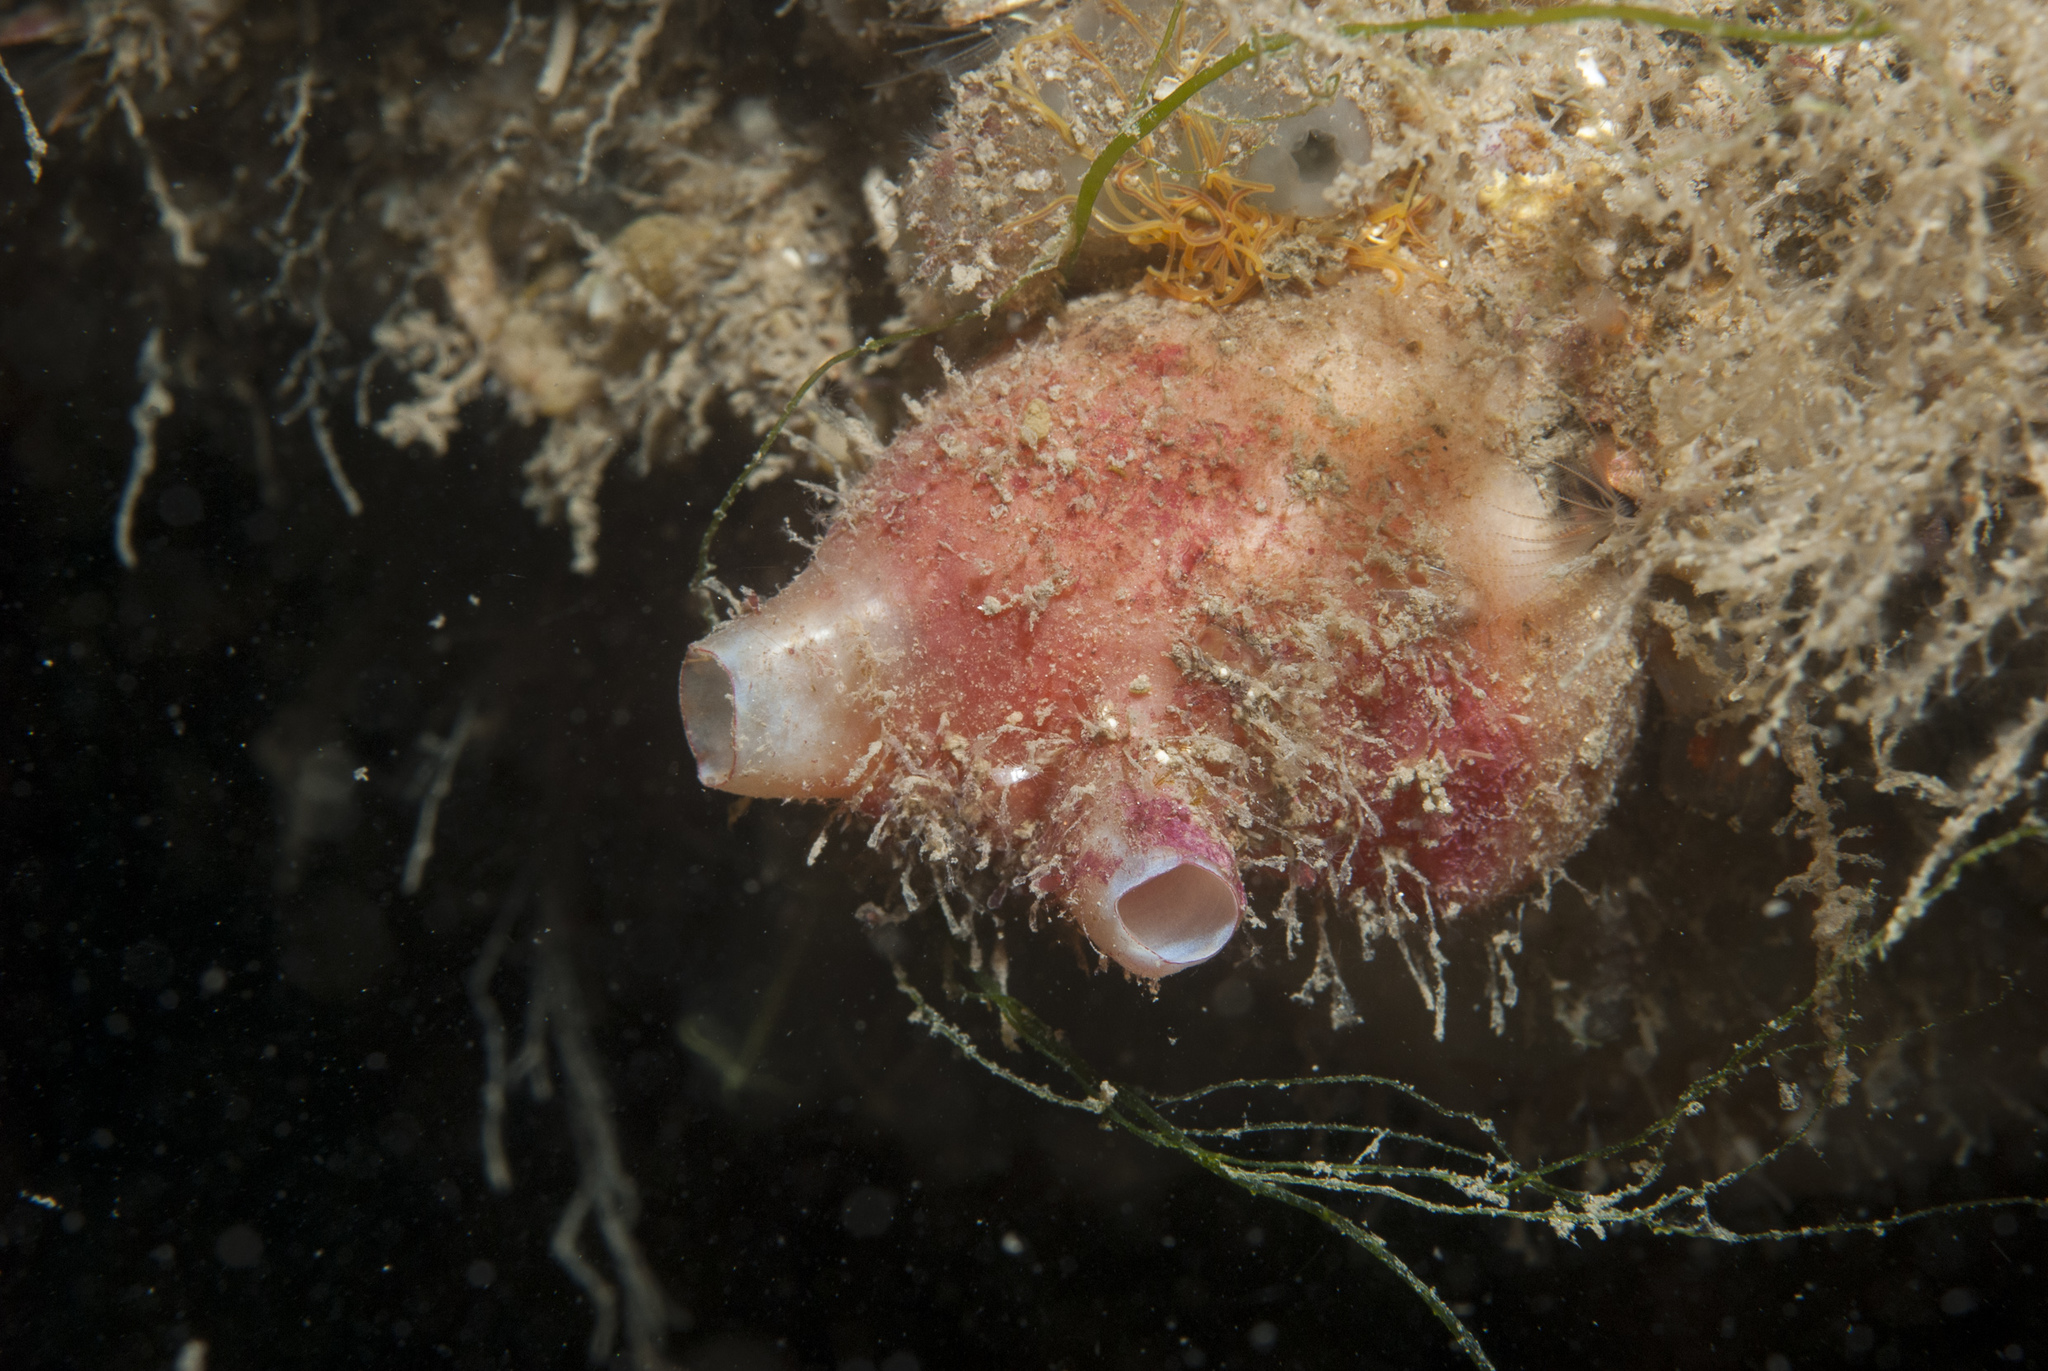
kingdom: Animalia
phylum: Chordata
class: Ascidiacea
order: Stolidobranchia
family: Styelidae
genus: Polycarpa
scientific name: Polycarpa scuba
